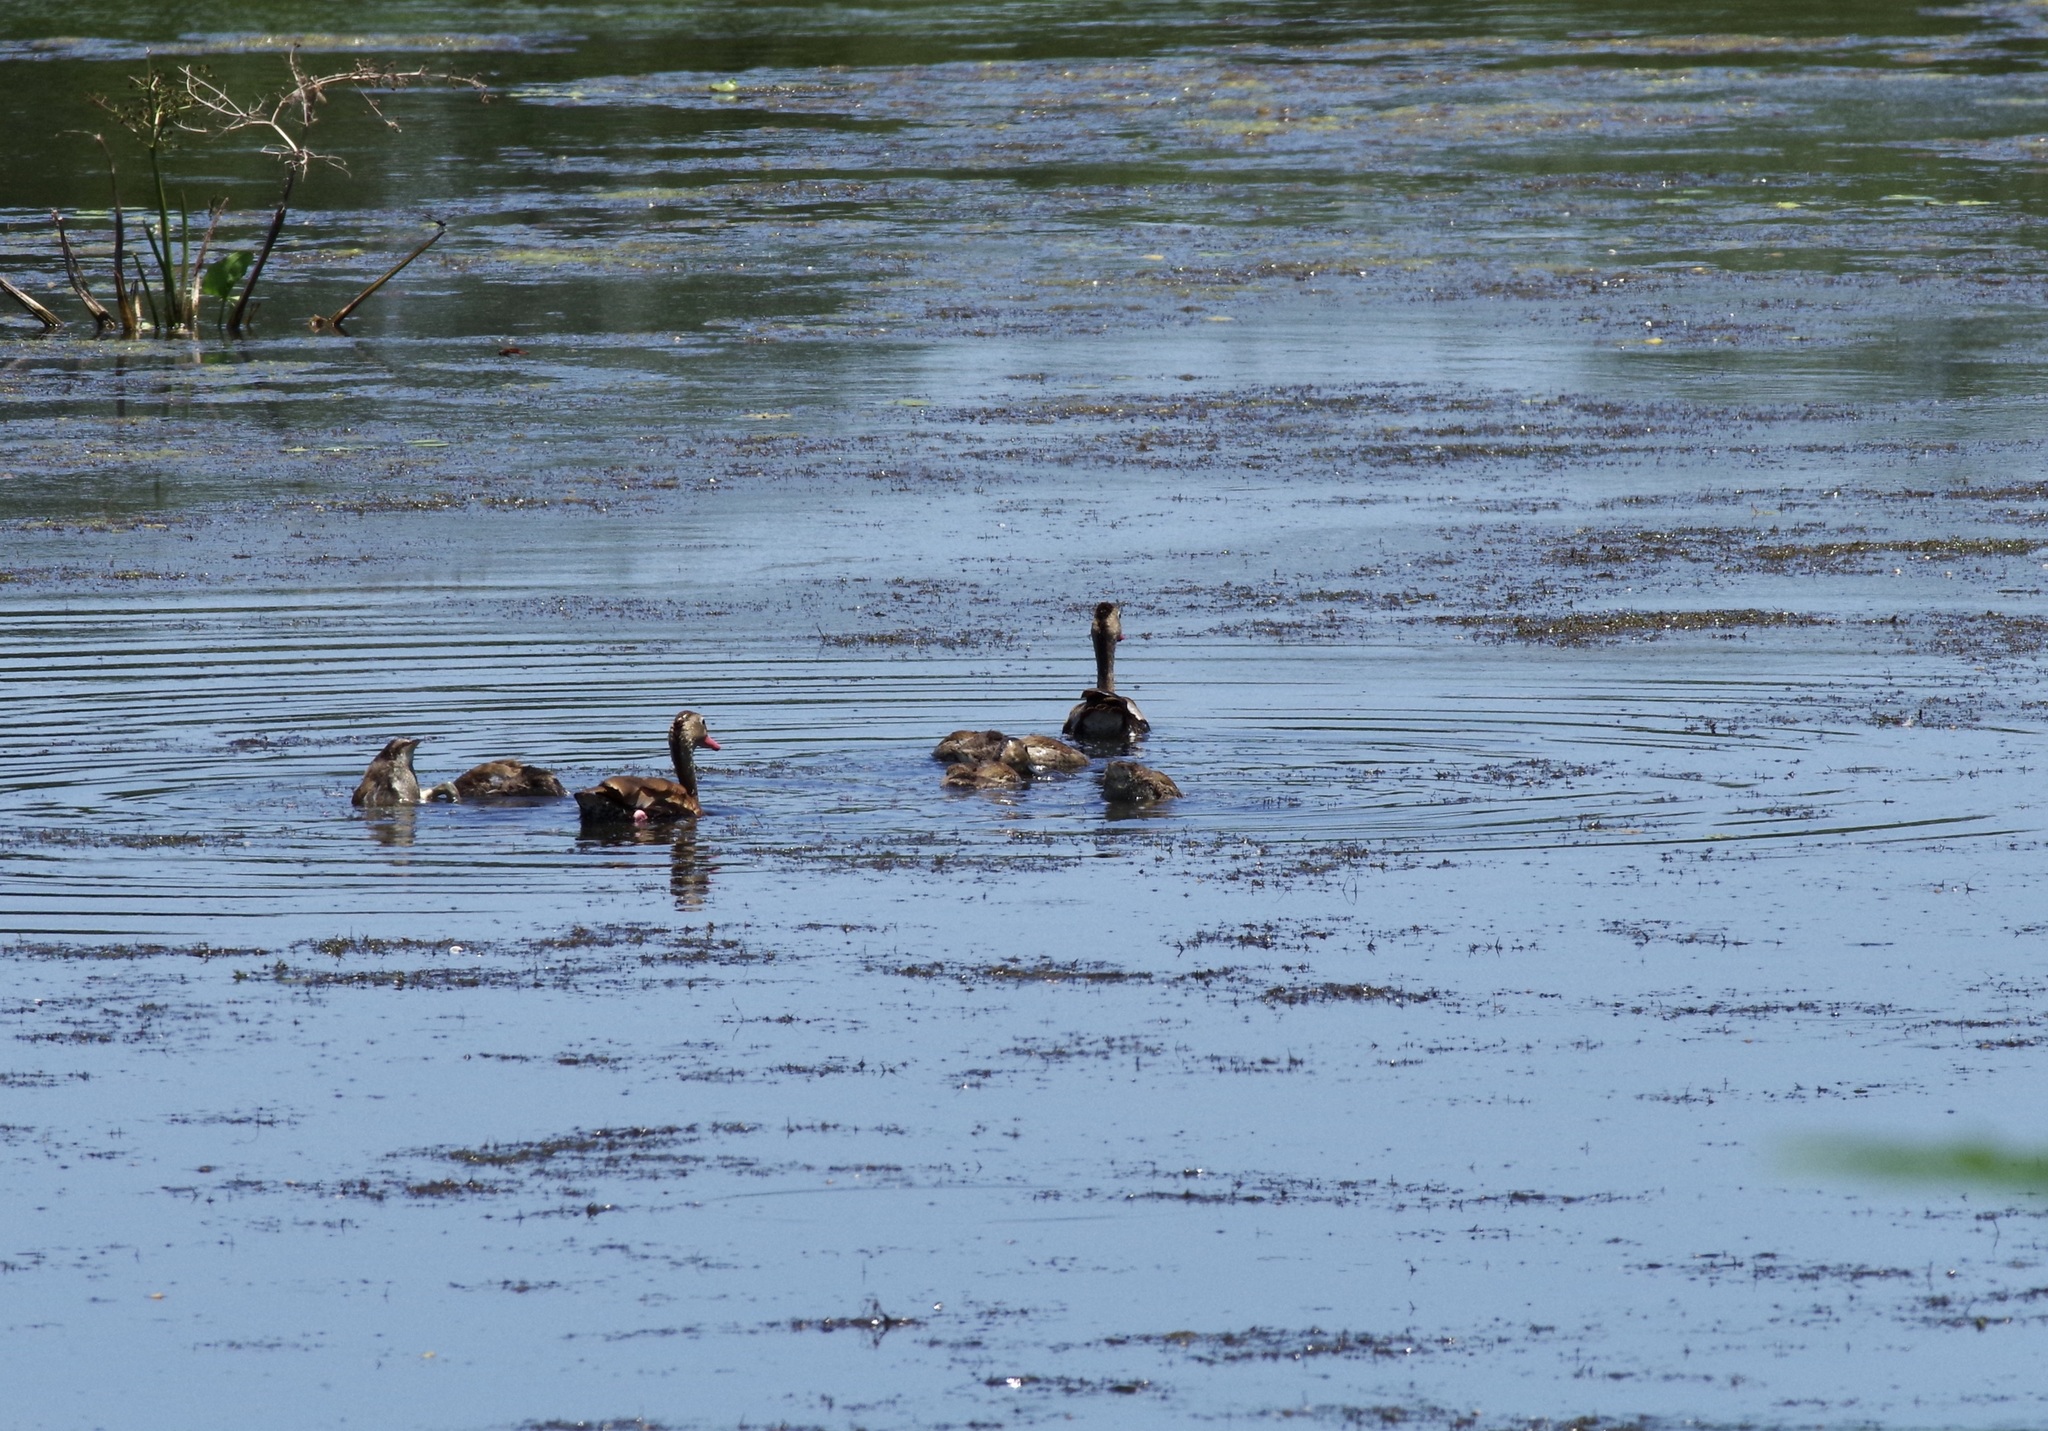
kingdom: Animalia
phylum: Chordata
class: Aves
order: Anseriformes
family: Anatidae
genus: Dendrocygna
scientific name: Dendrocygna autumnalis
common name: Black-bellied whistling duck
